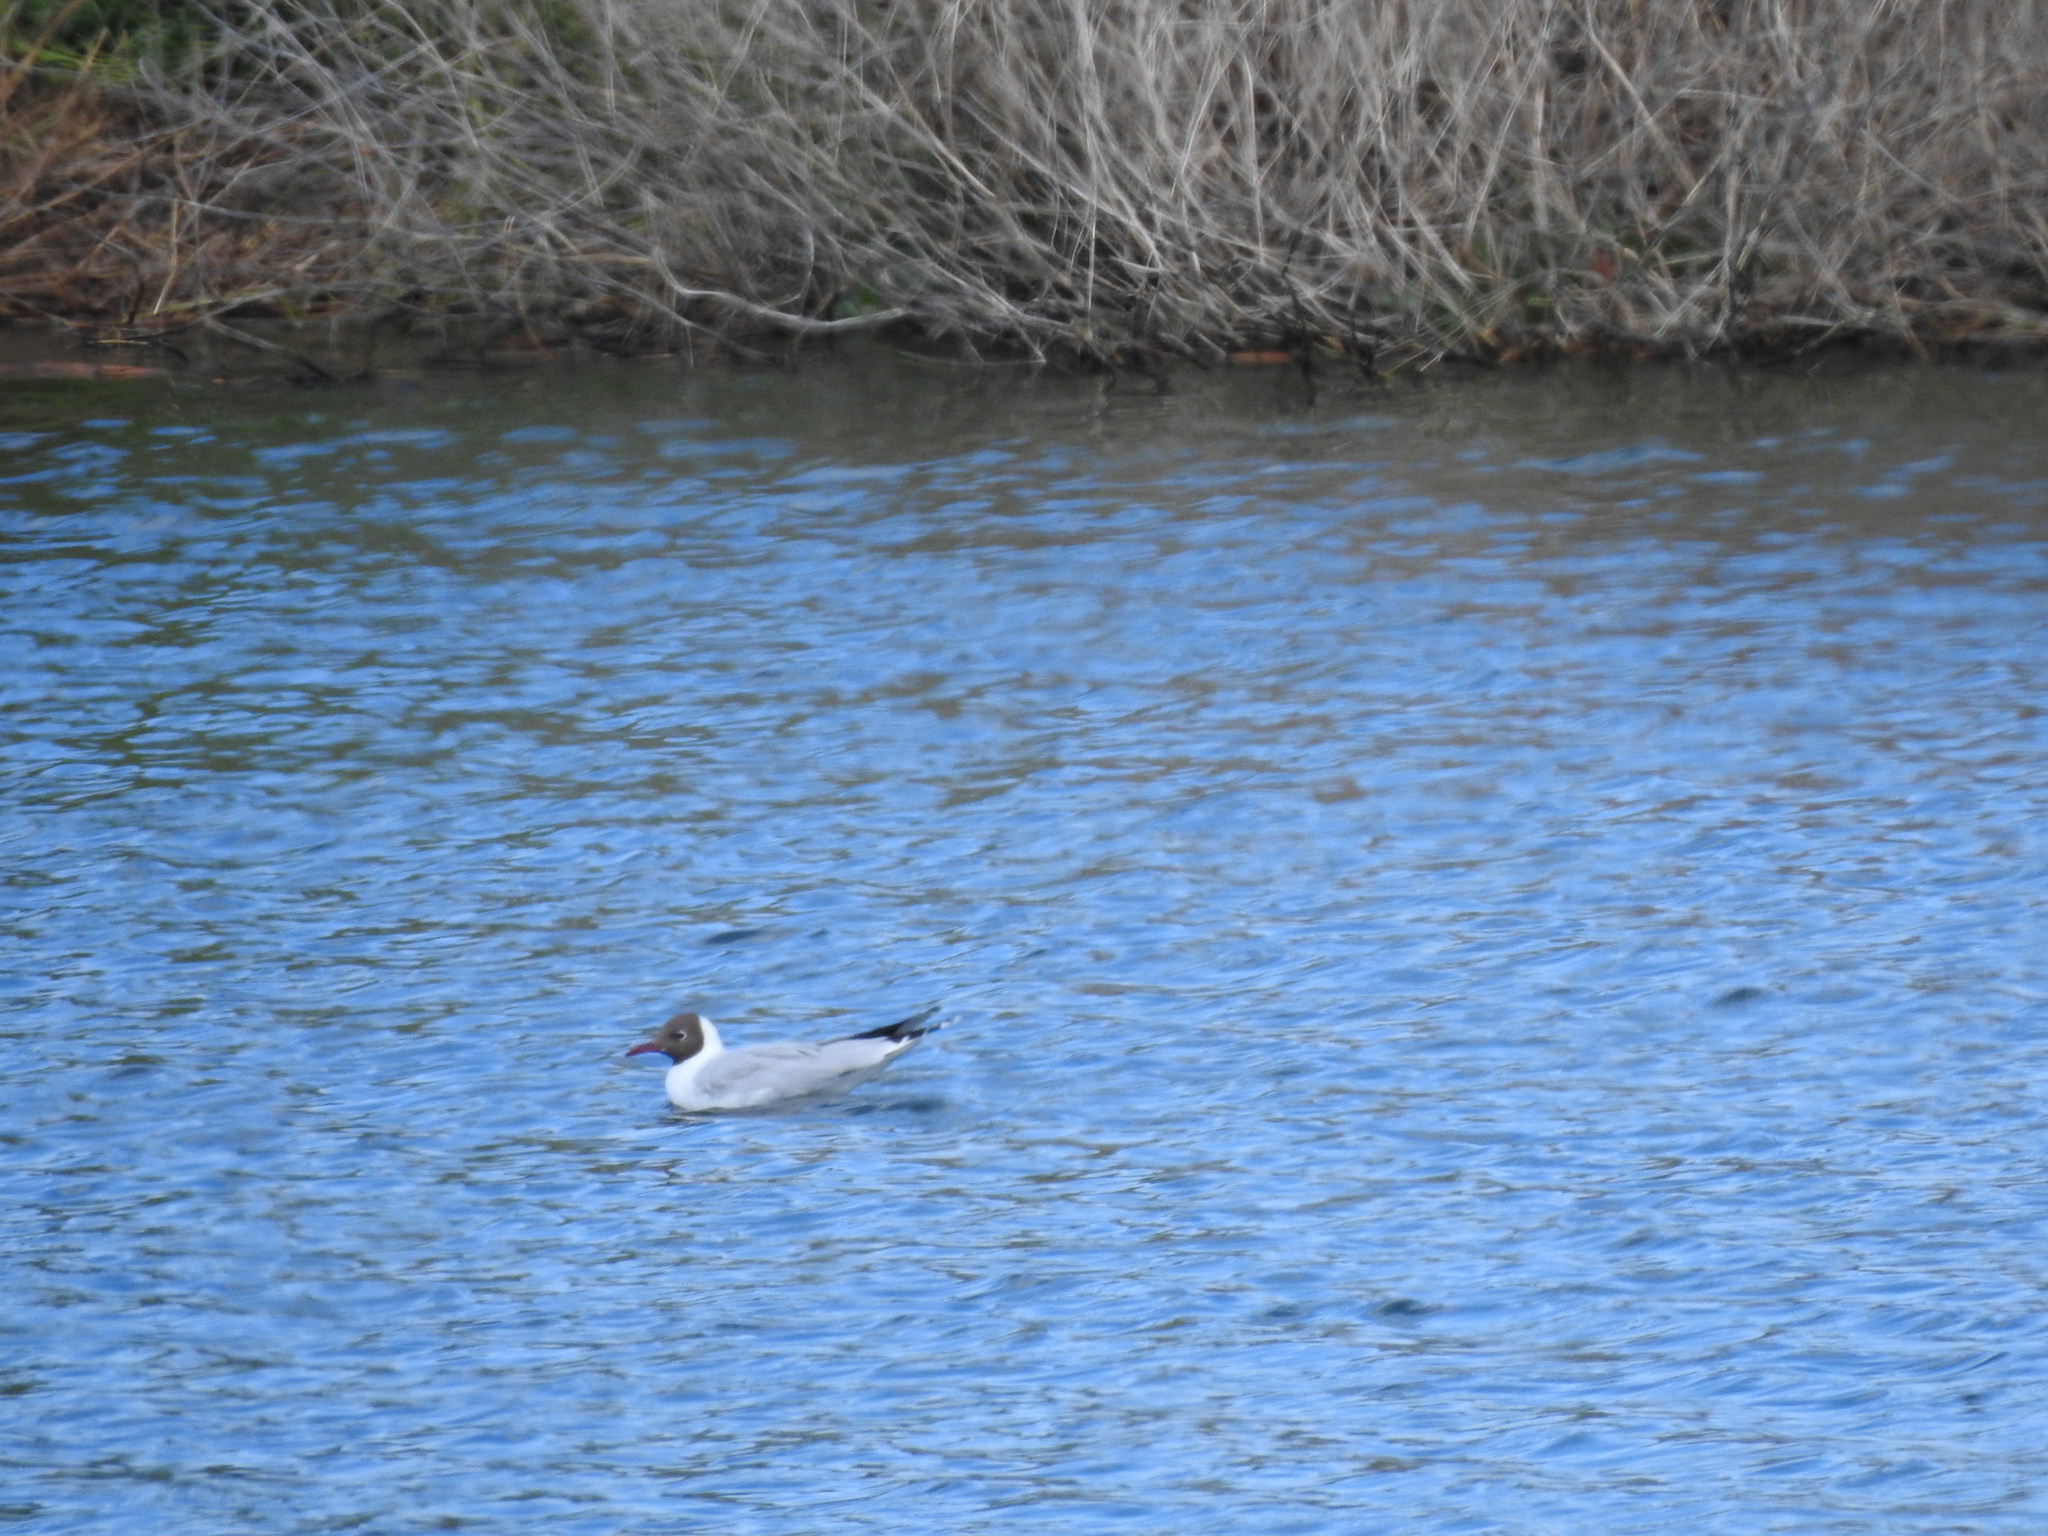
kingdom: Animalia
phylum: Chordata
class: Aves
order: Charadriiformes
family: Laridae
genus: Chroicocephalus
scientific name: Chroicocephalus maculipennis
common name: Brown-hooded gull
